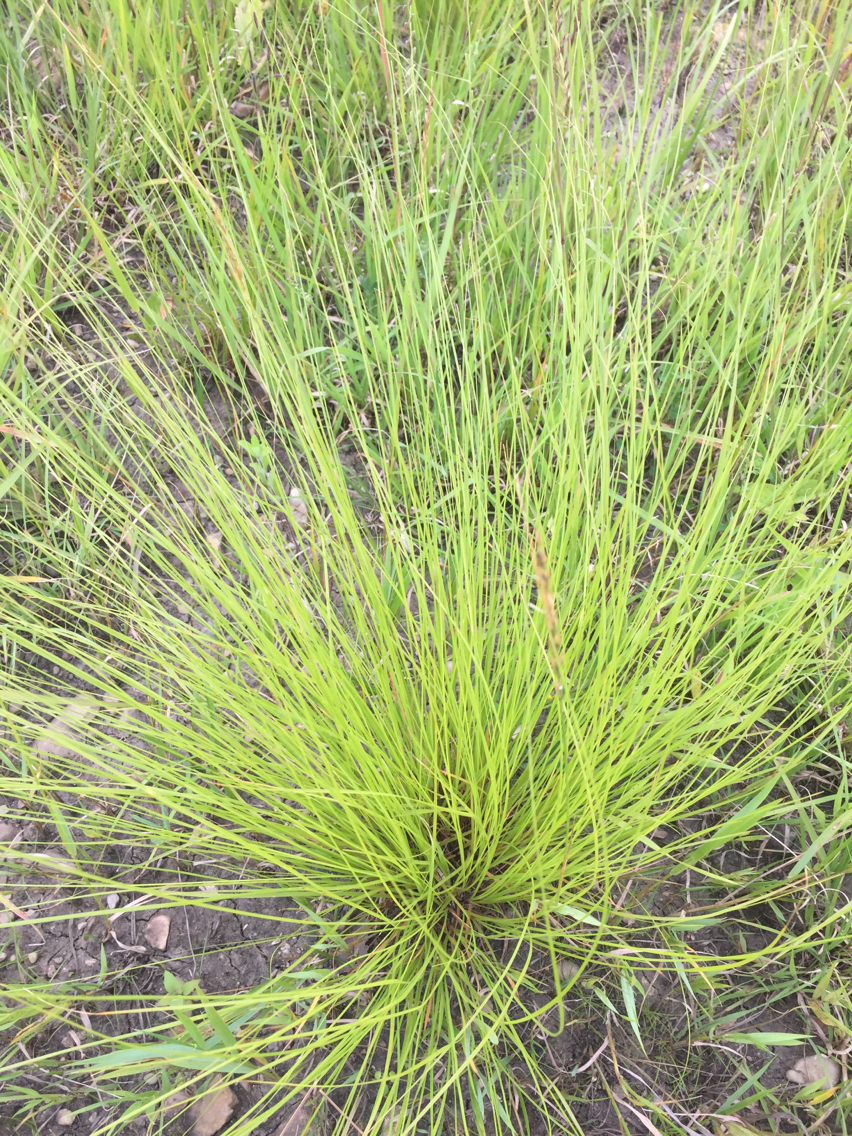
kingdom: Plantae
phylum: Tracheophyta
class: Liliopsida
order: Poales
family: Poaceae
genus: Sporobolus
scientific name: Sporobolus heterolepis
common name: Prairie dropseed
